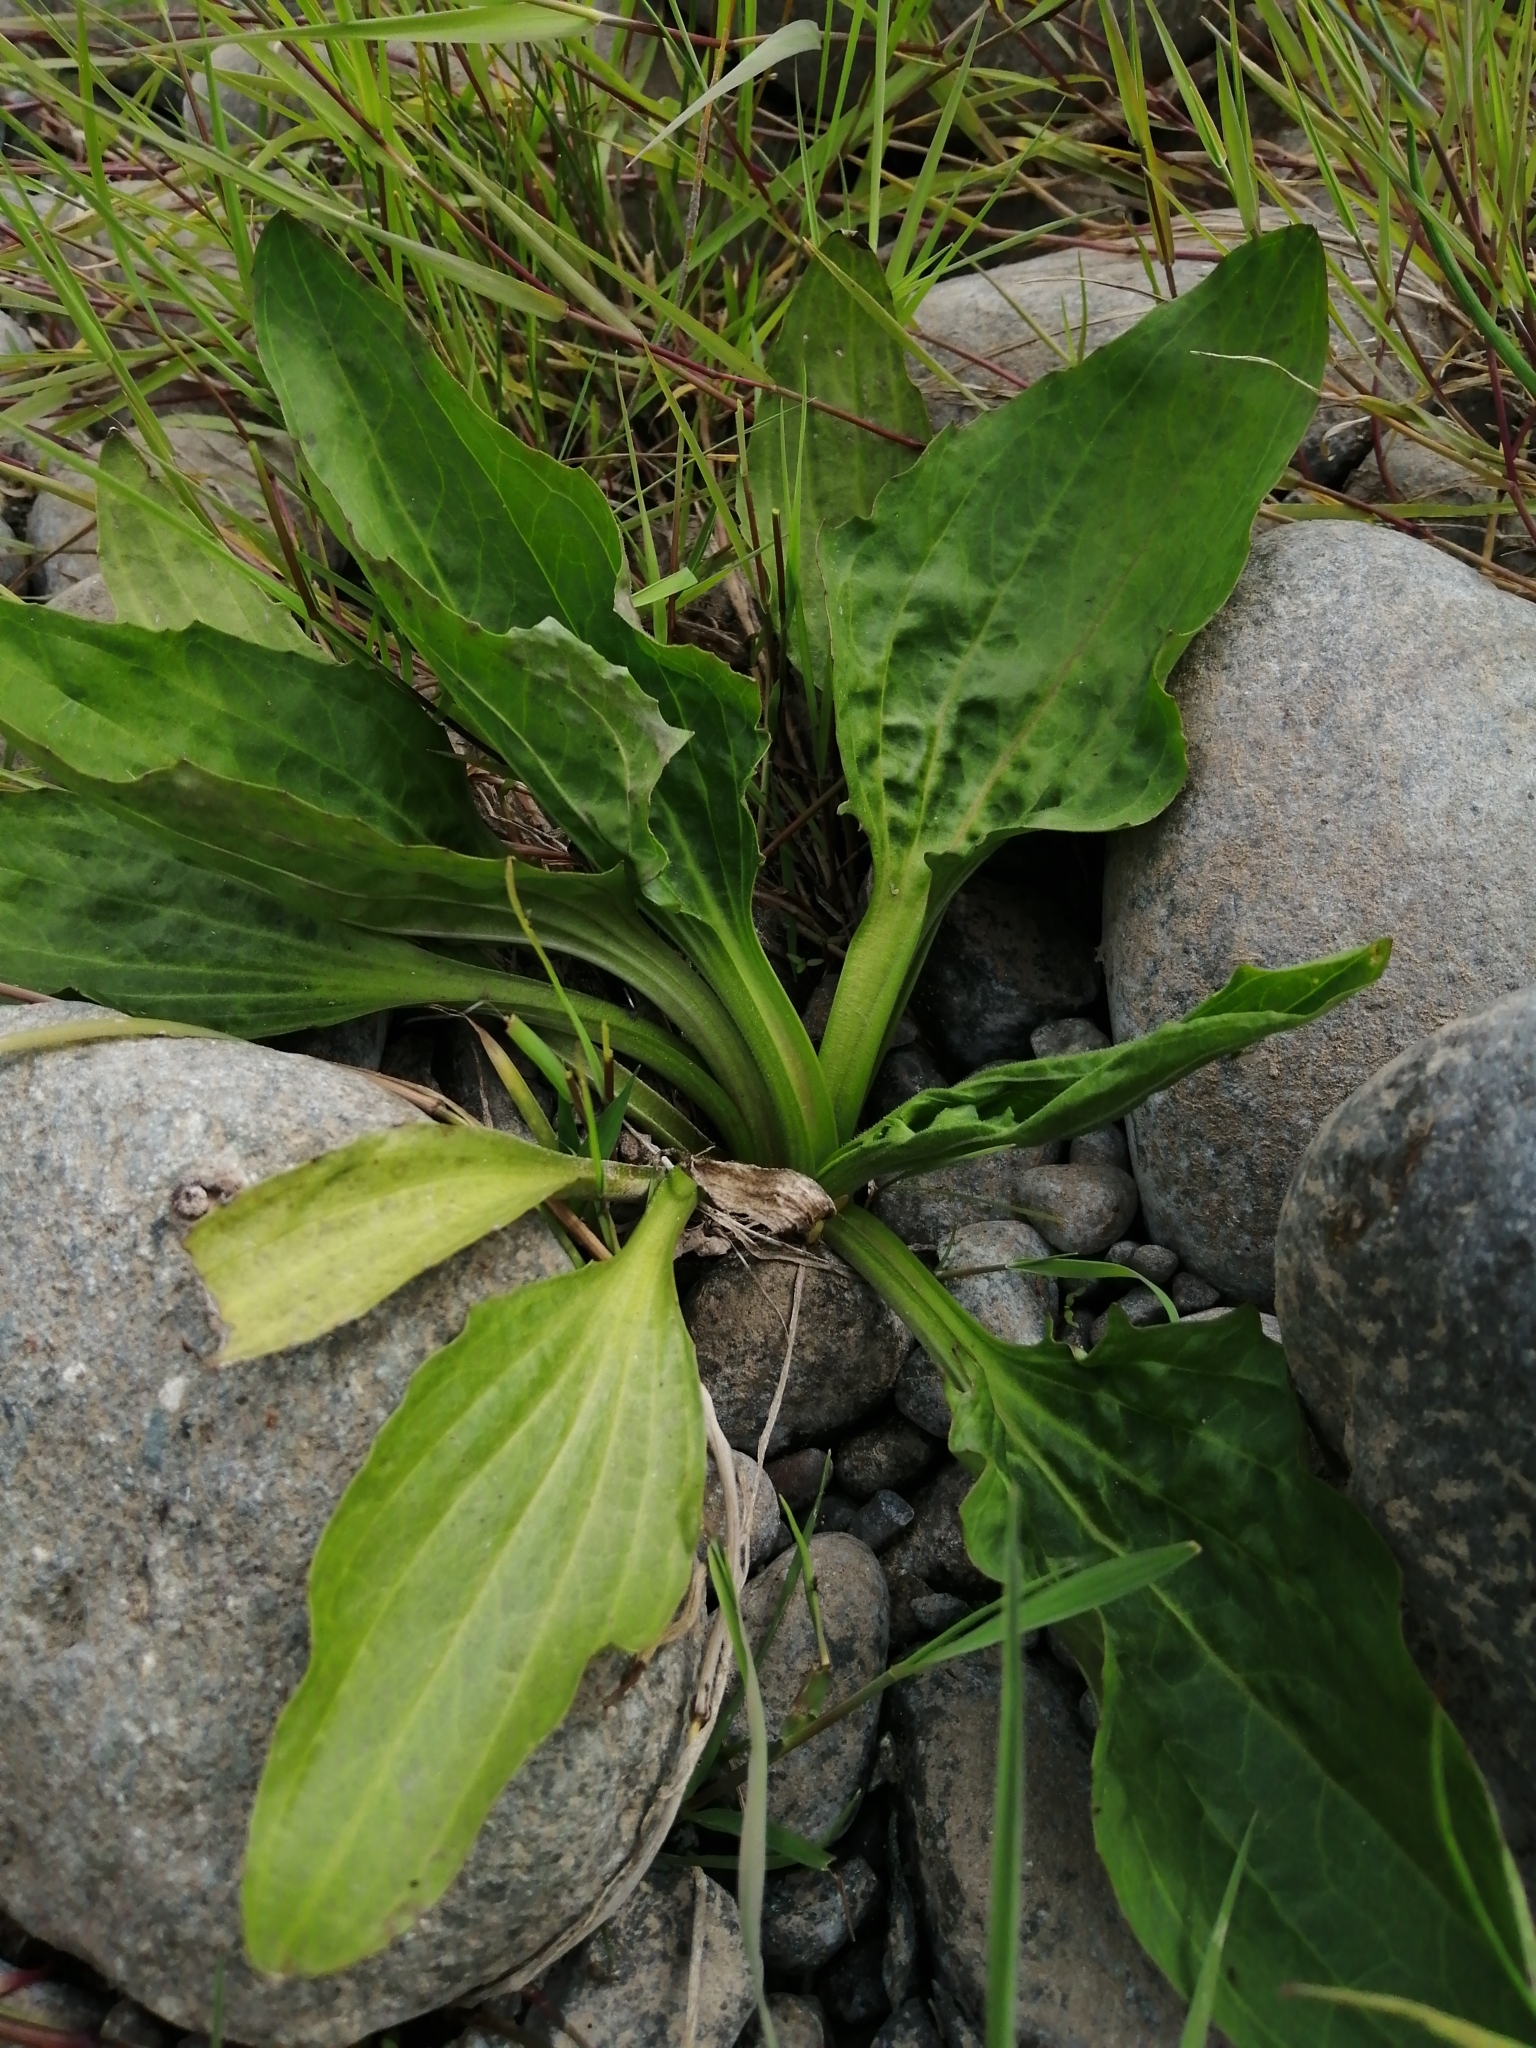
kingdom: Plantae
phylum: Tracheophyta
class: Magnoliopsida
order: Lamiales
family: Plantaginaceae
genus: Plantago
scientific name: Plantago major
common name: Common plantain
